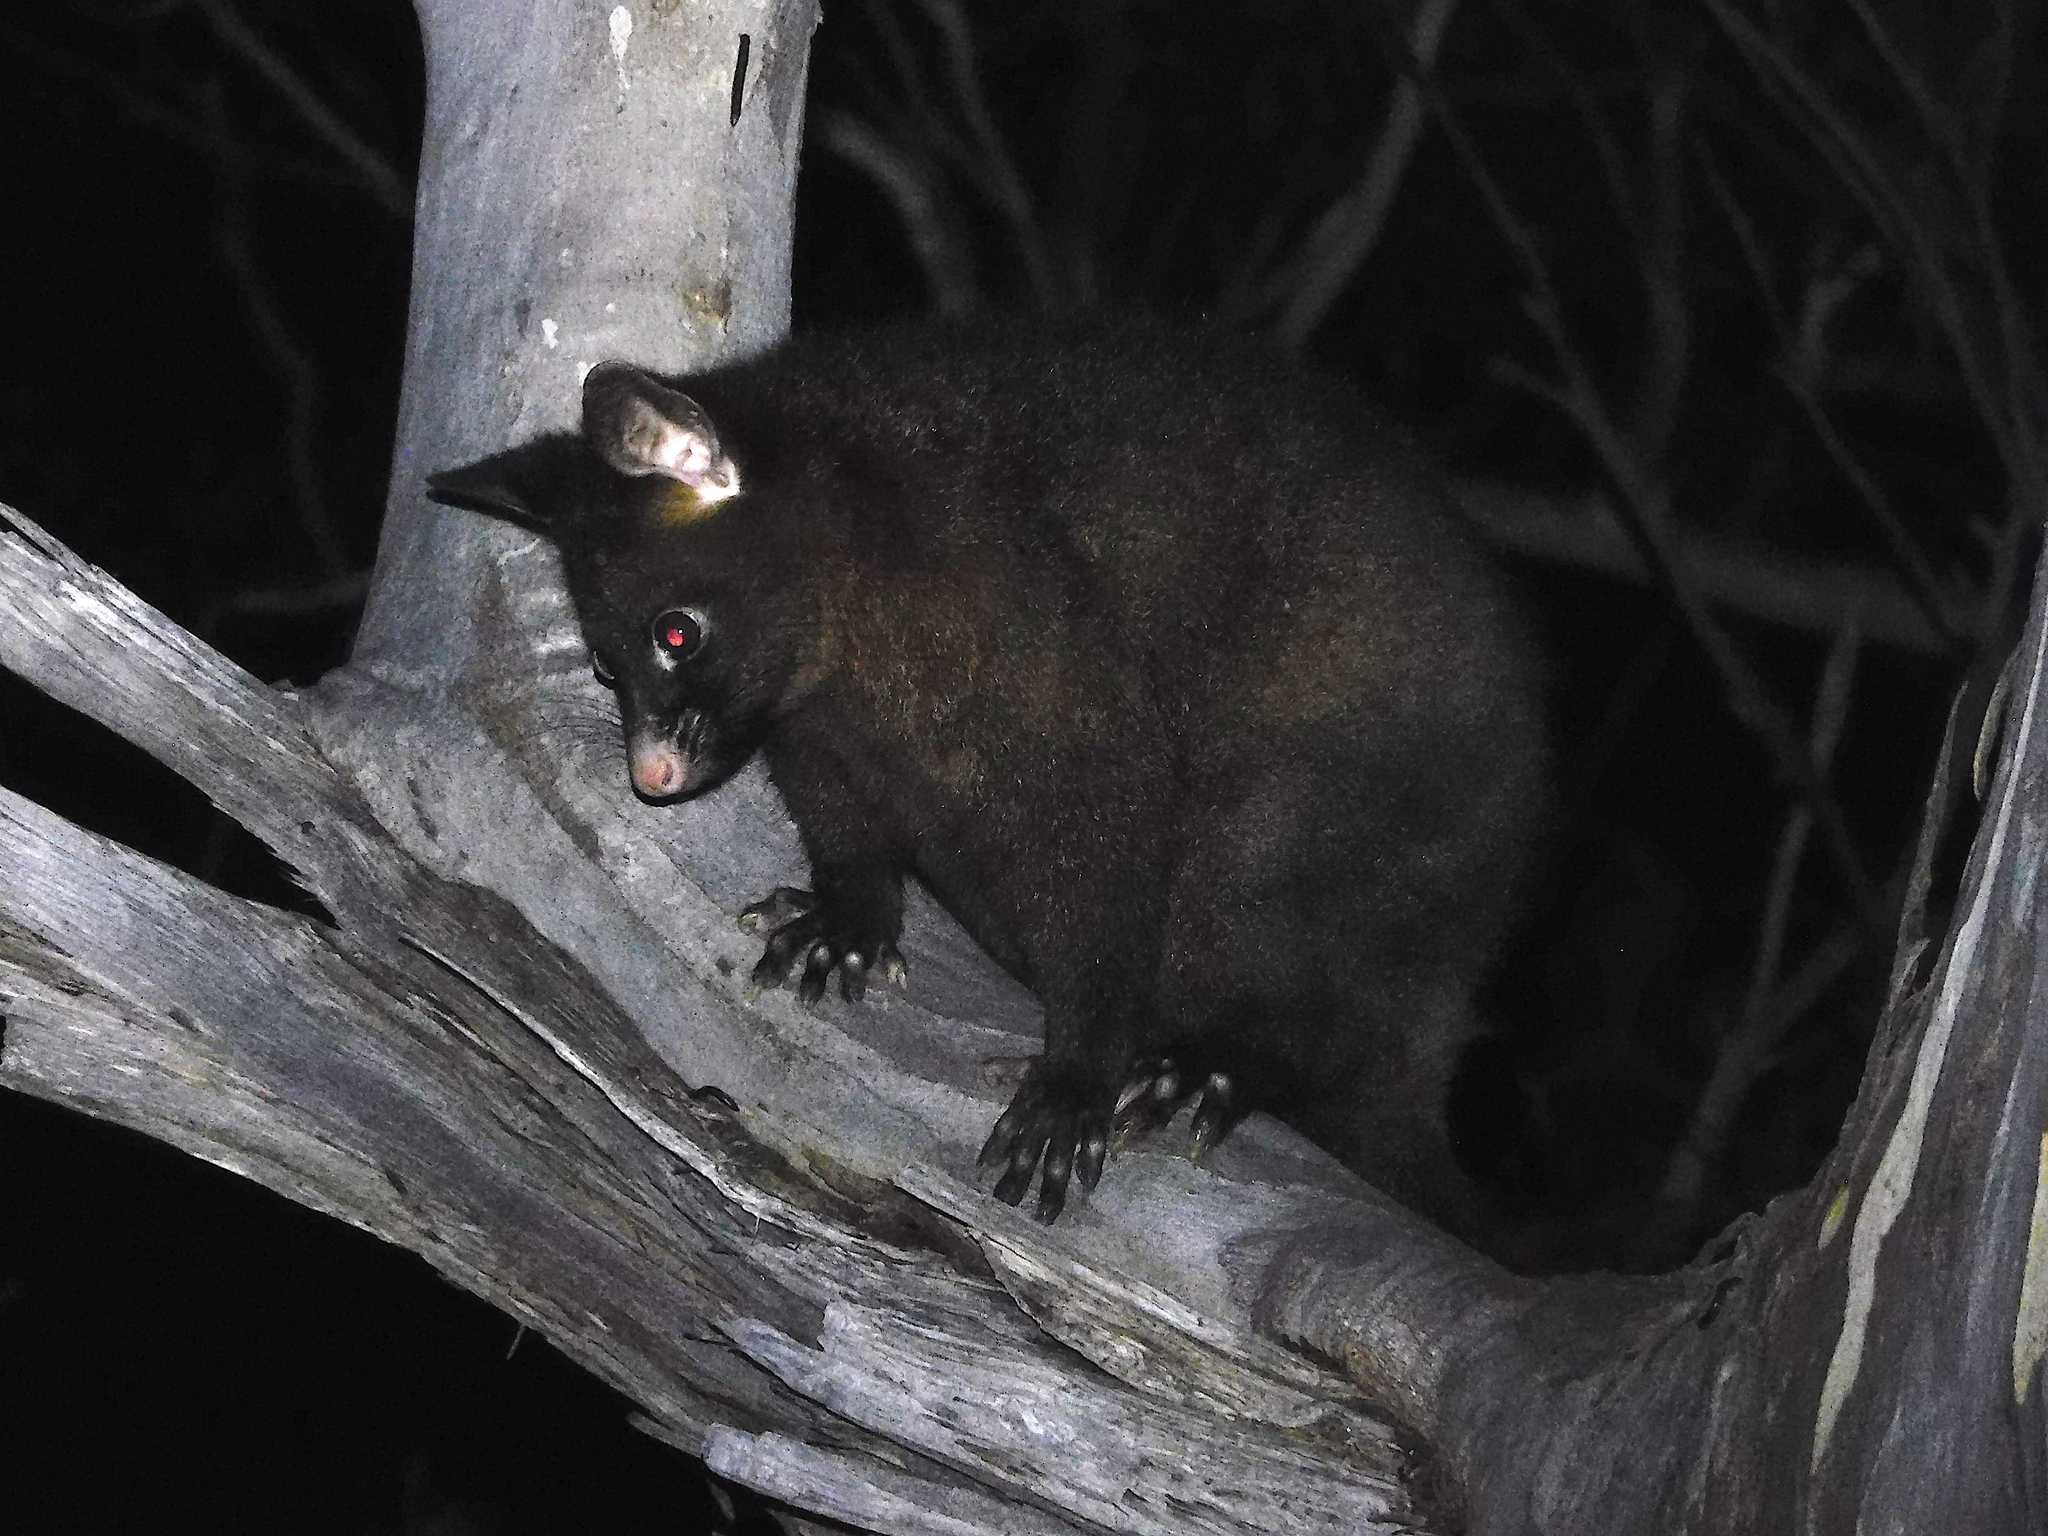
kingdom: Animalia
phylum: Chordata
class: Mammalia
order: Diprotodontia
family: Phalangeridae
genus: Trichosurus
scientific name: Trichosurus vulpecula
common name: Common brushtail
